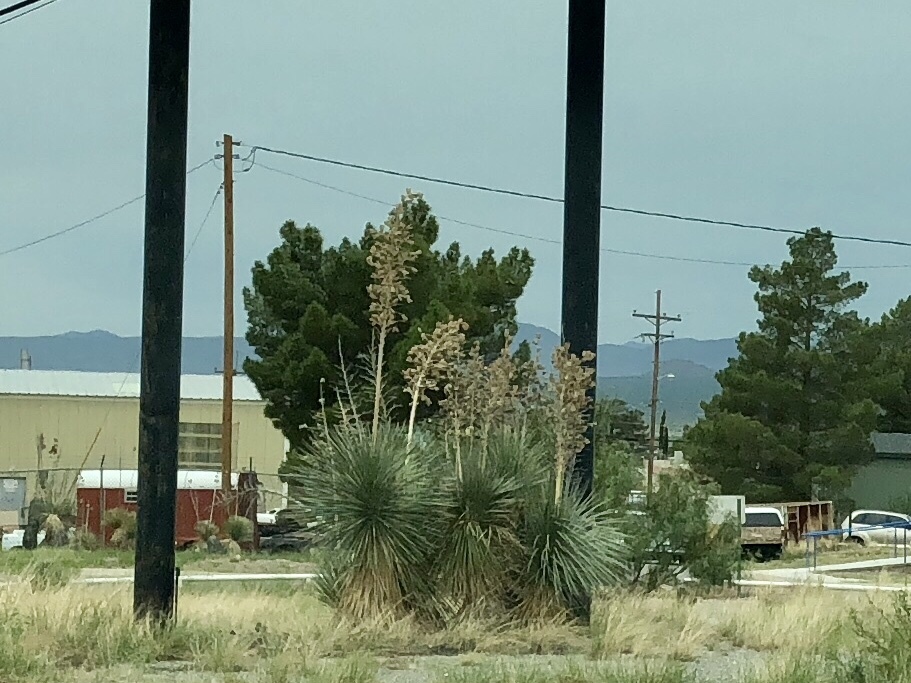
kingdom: Plantae
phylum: Tracheophyta
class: Liliopsida
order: Asparagales
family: Asparagaceae
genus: Yucca
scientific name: Yucca elata
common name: Palmella
